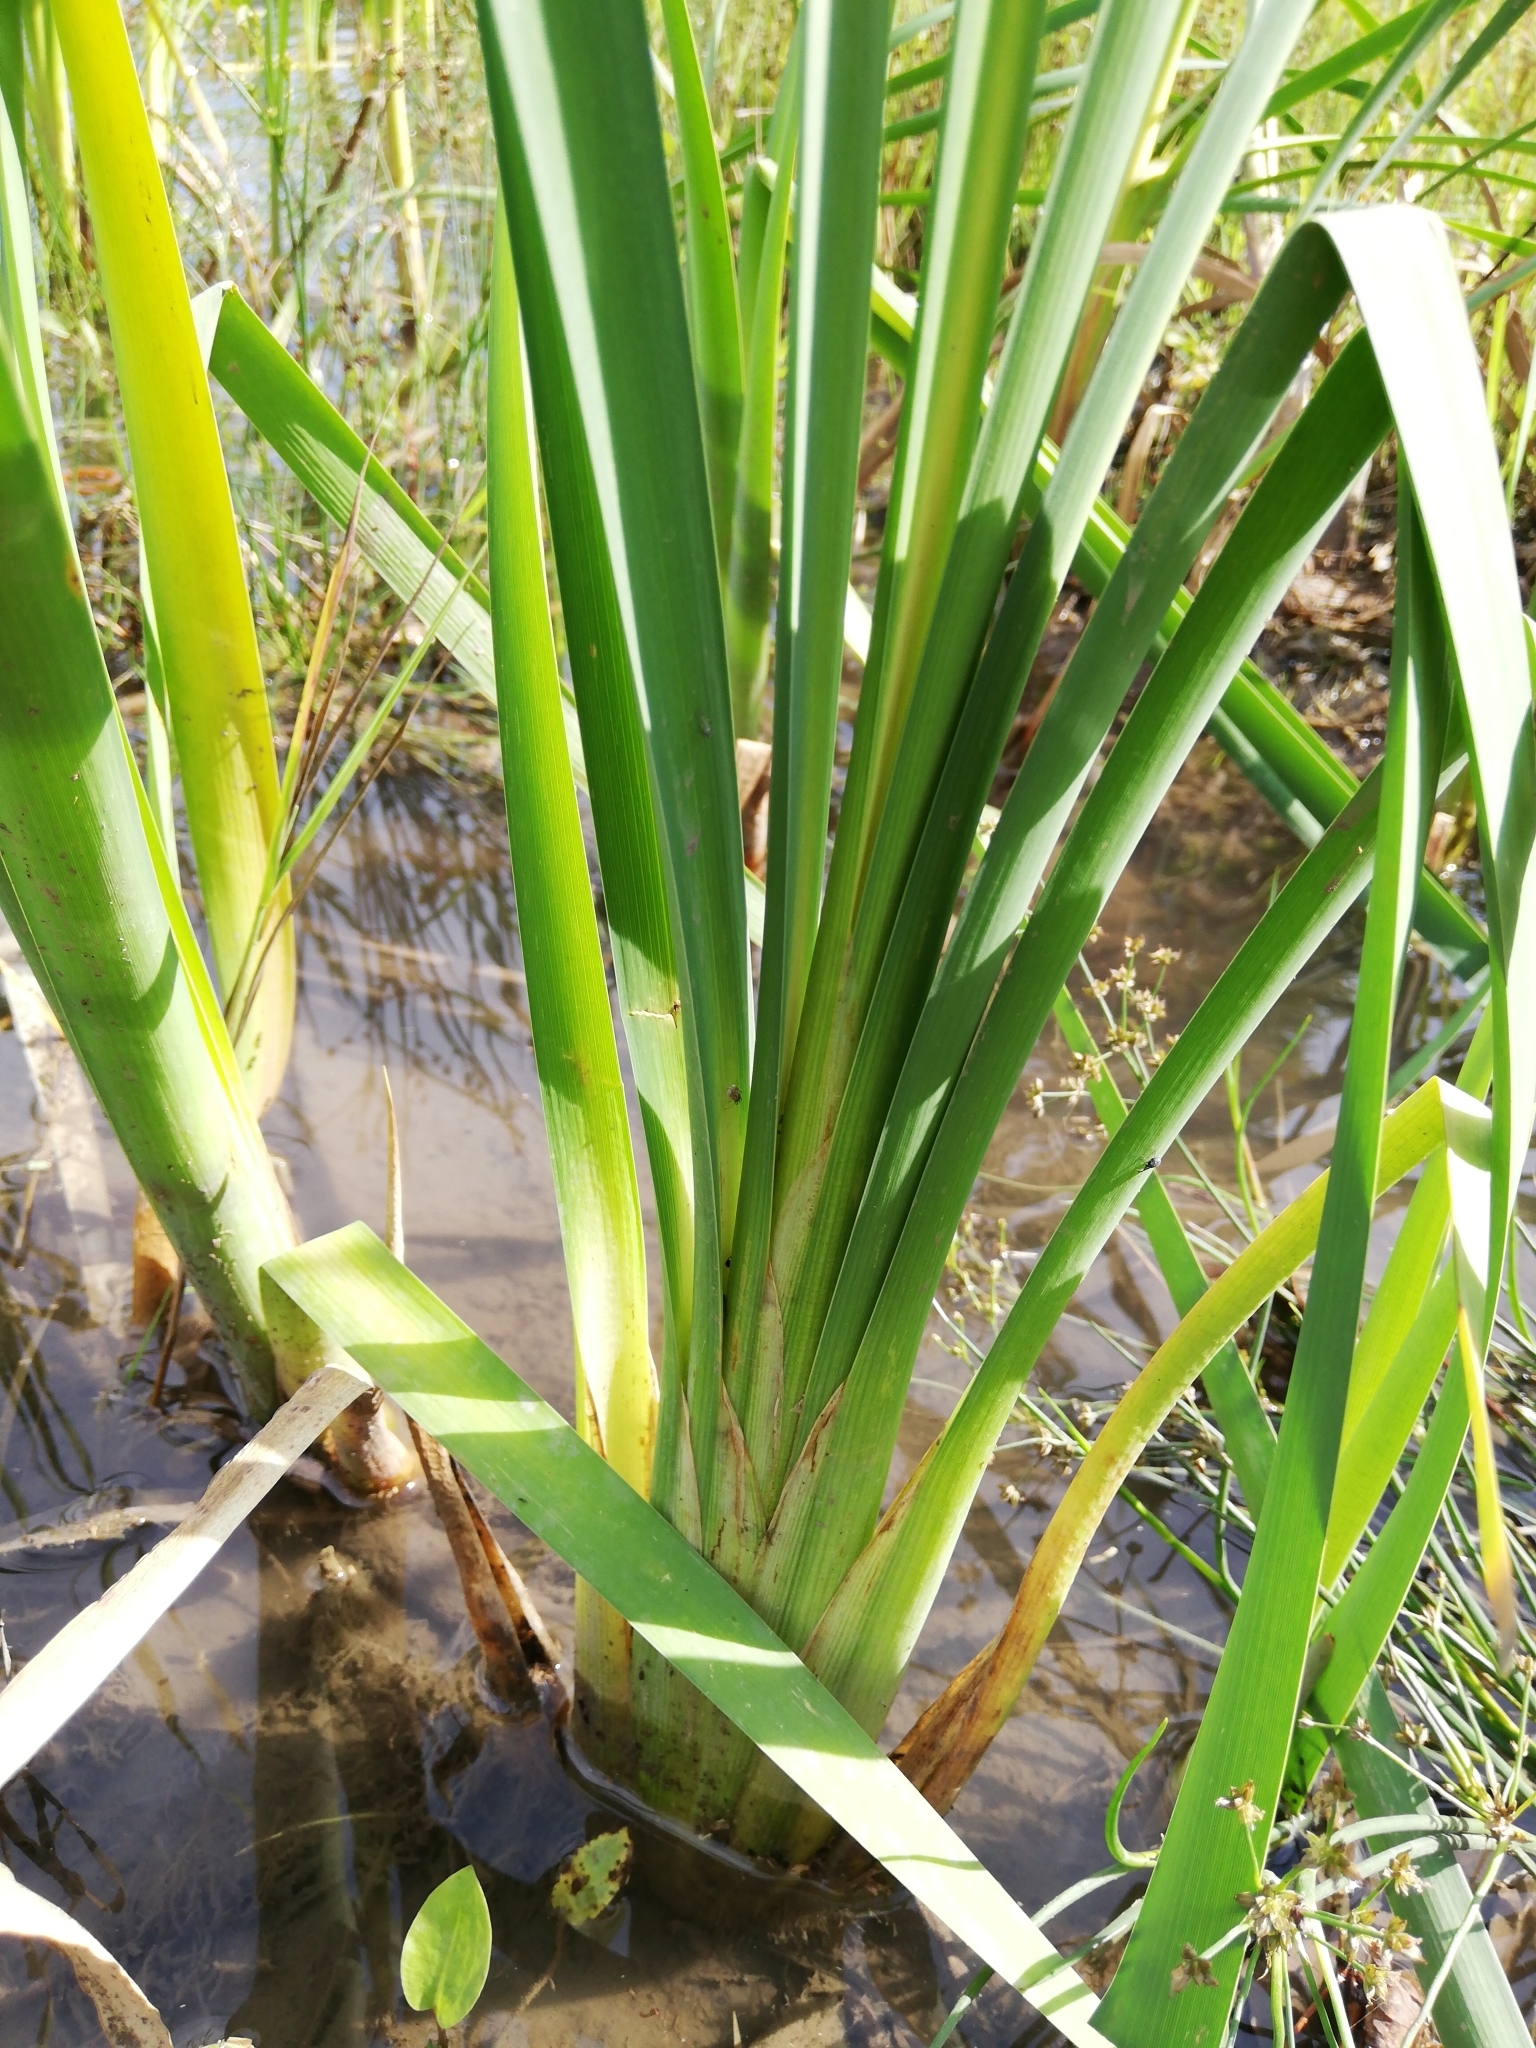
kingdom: Plantae
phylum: Tracheophyta
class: Liliopsida
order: Poales
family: Typhaceae
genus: Typha
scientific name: Typha latifolia
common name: Broadleaf cattail
